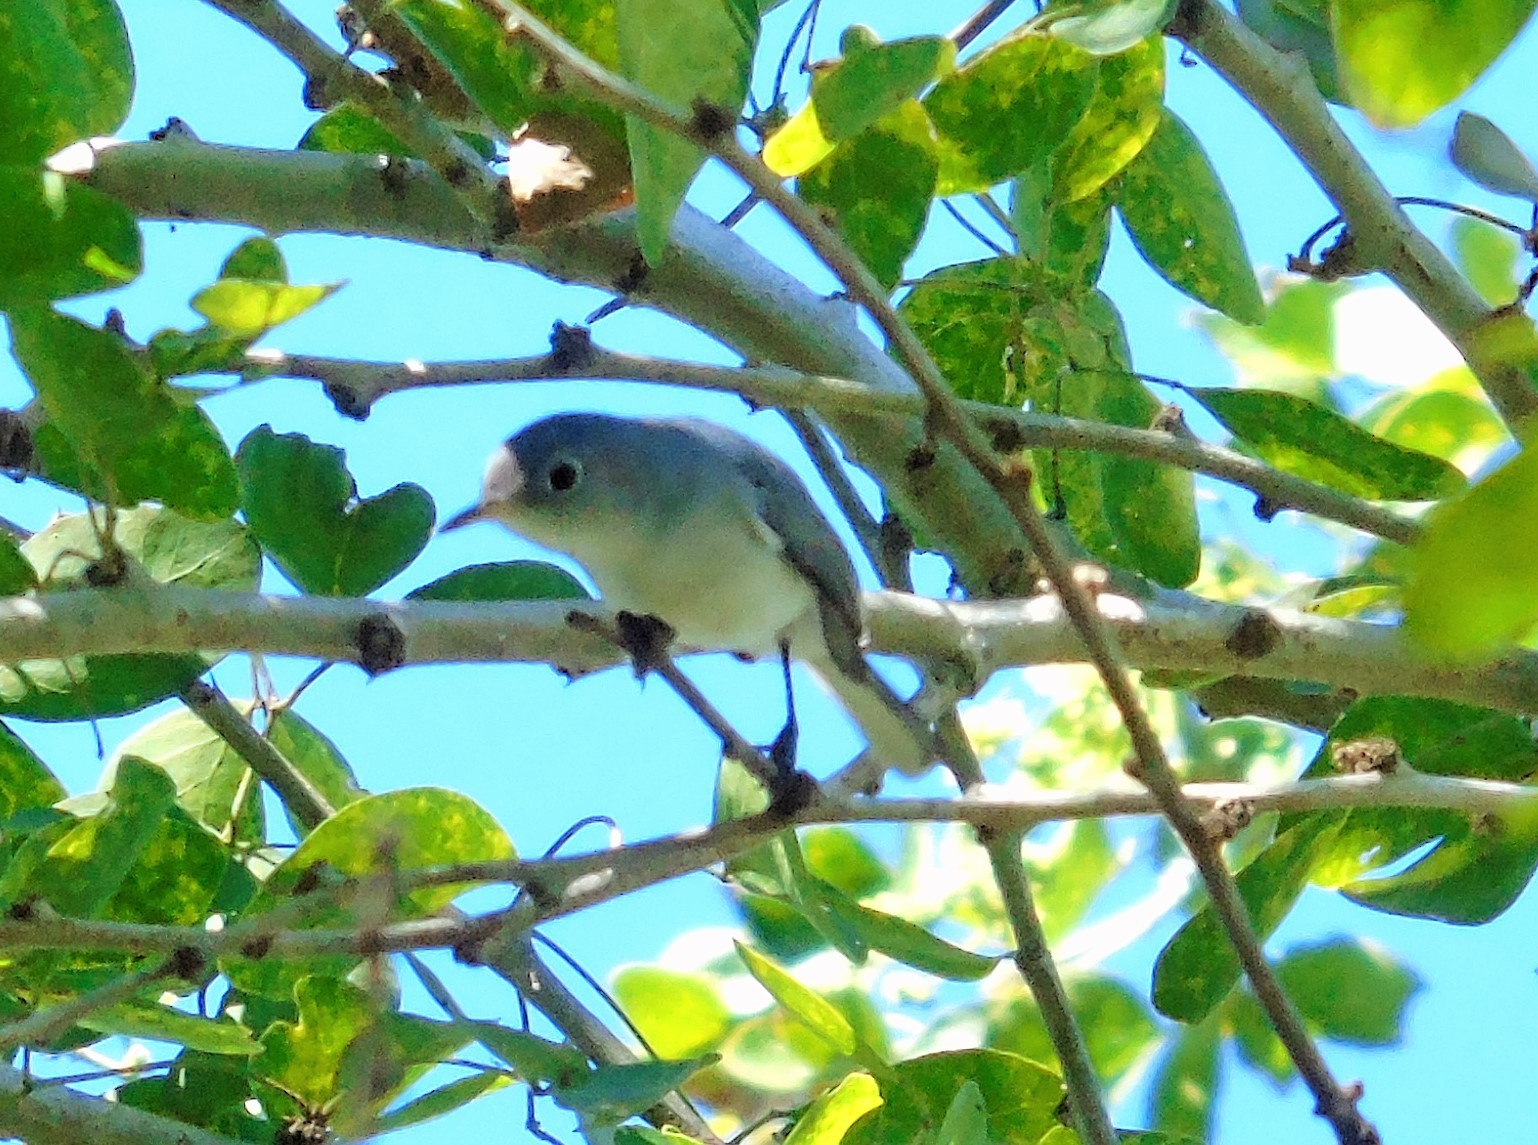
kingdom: Animalia
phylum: Chordata
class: Aves
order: Passeriformes
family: Polioptilidae
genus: Polioptila
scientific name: Polioptila caerulea
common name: Blue-gray gnatcatcher
